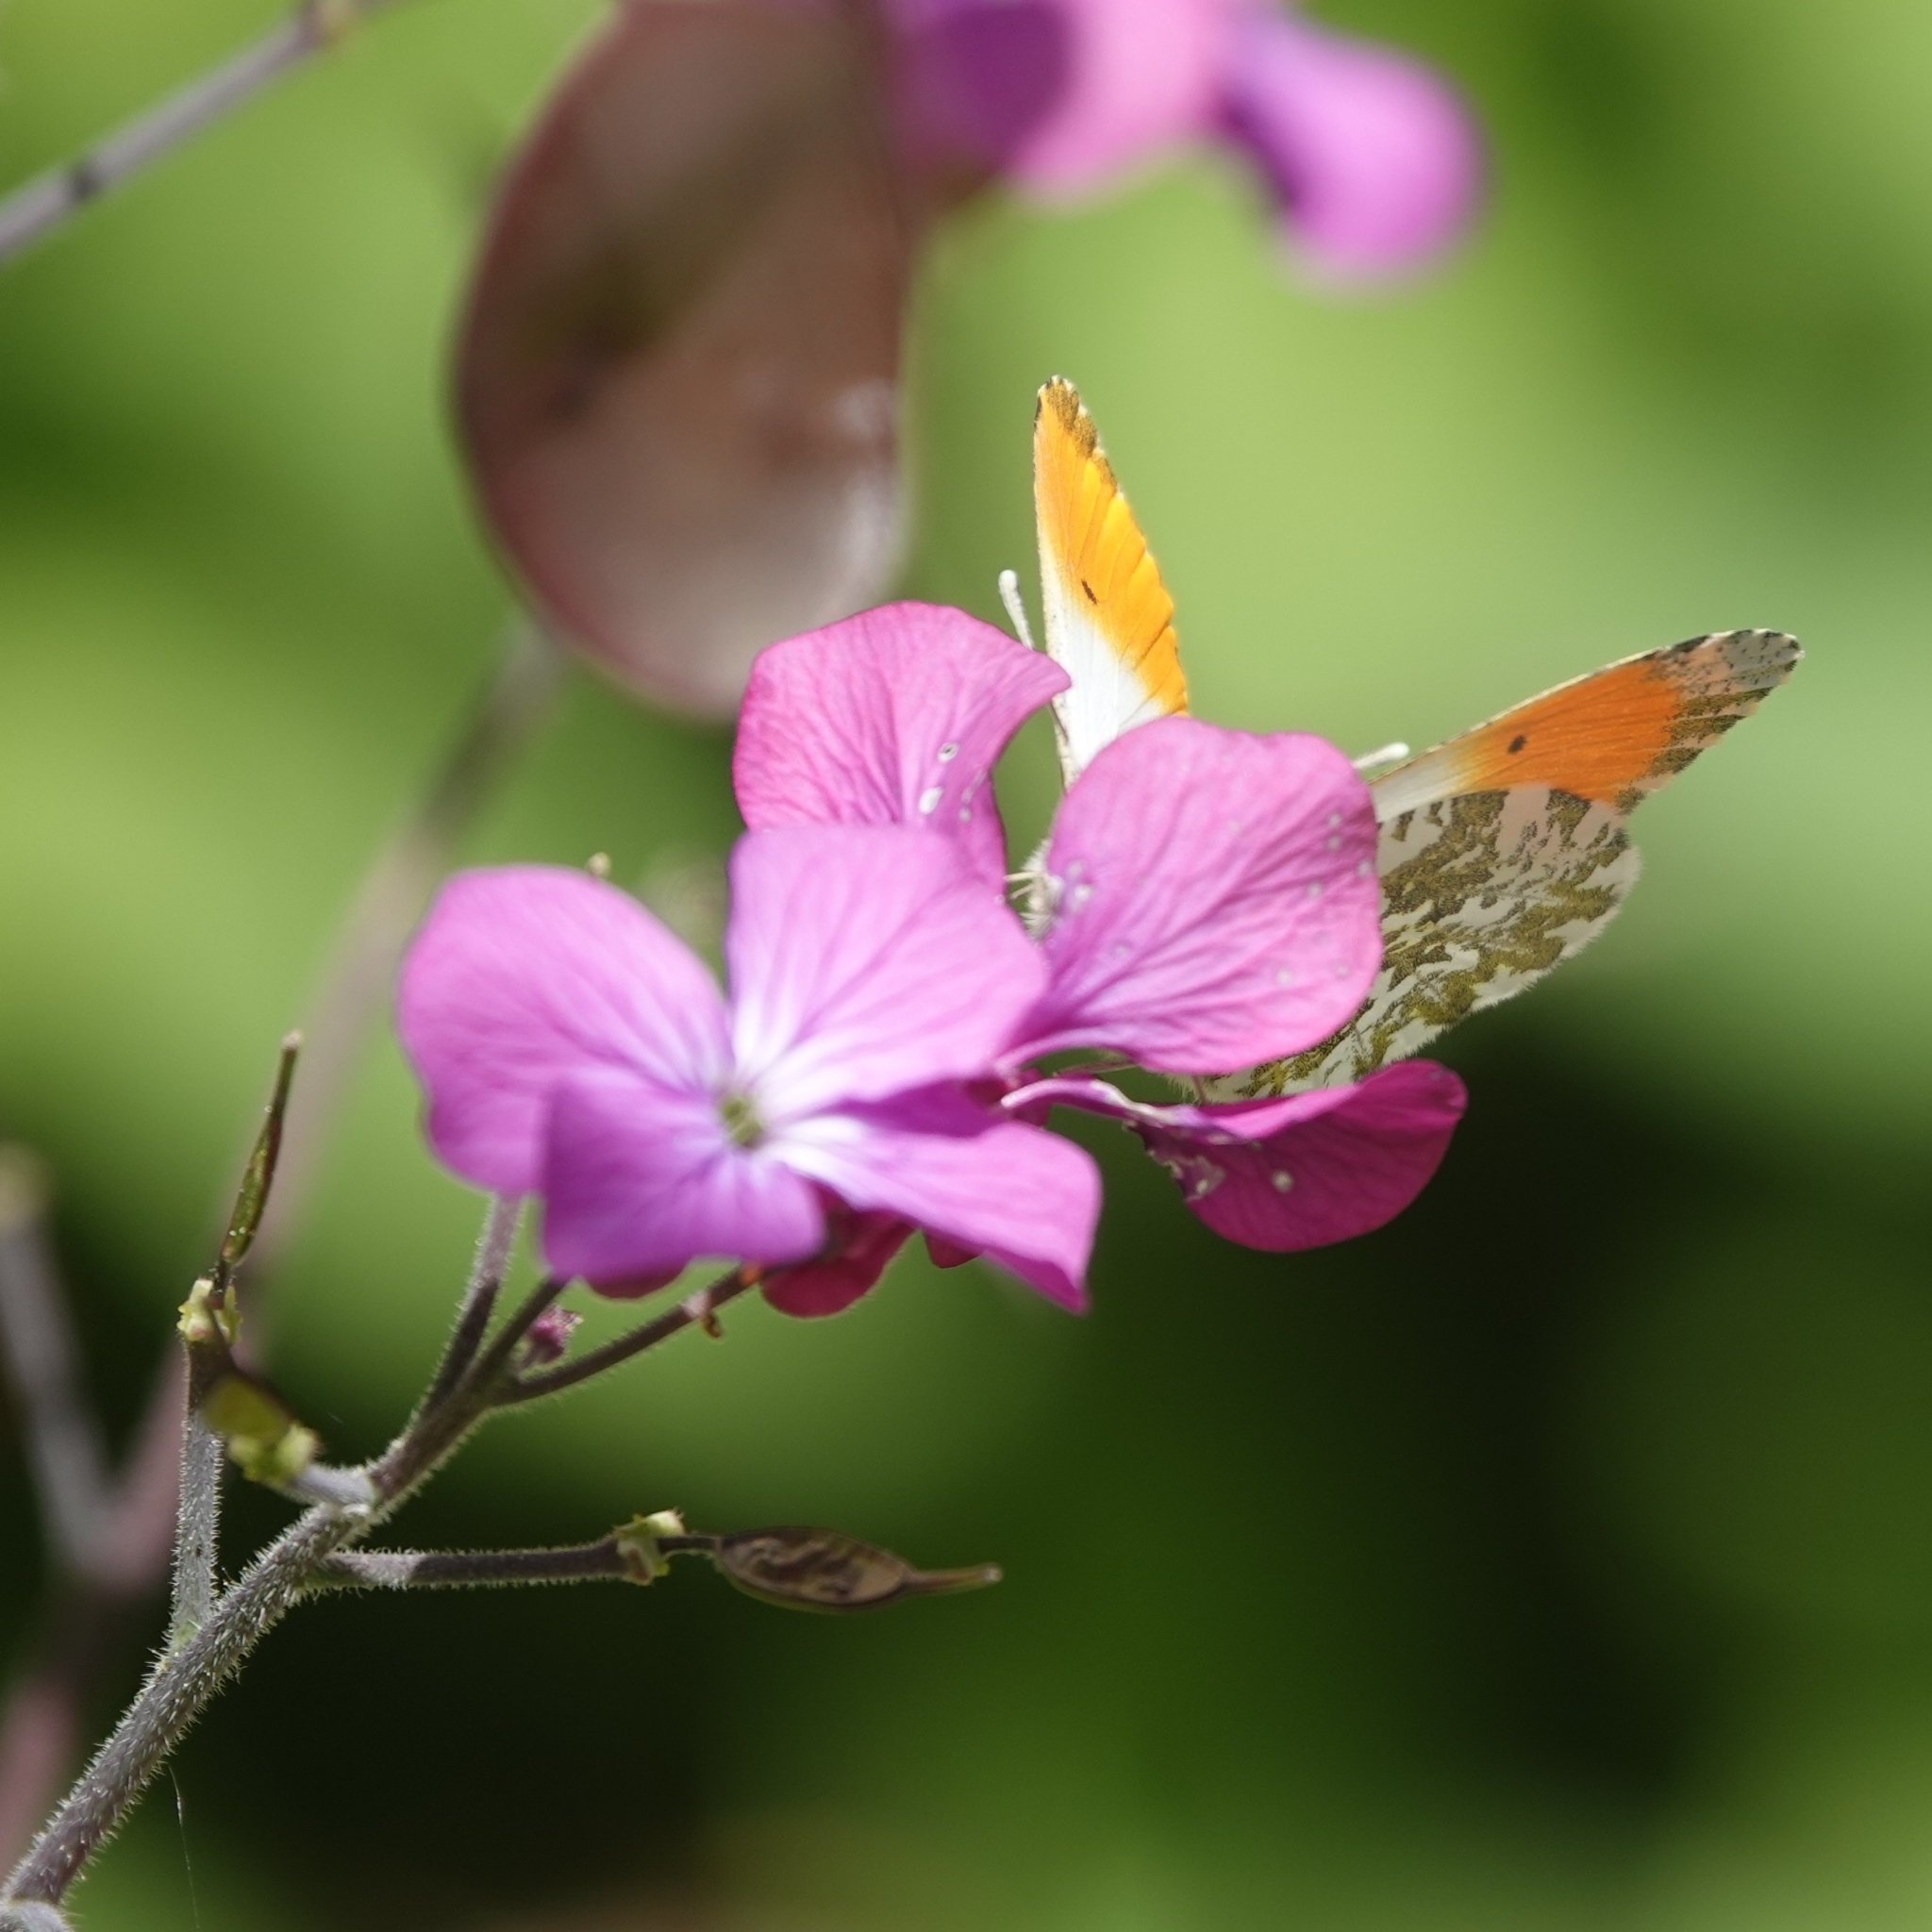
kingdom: Animalia
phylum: Arthropoda
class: Insecta
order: Lepidoptera
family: Pieridae
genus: Anthocharis
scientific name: Anthocharis cardamines
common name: Orange-tip
